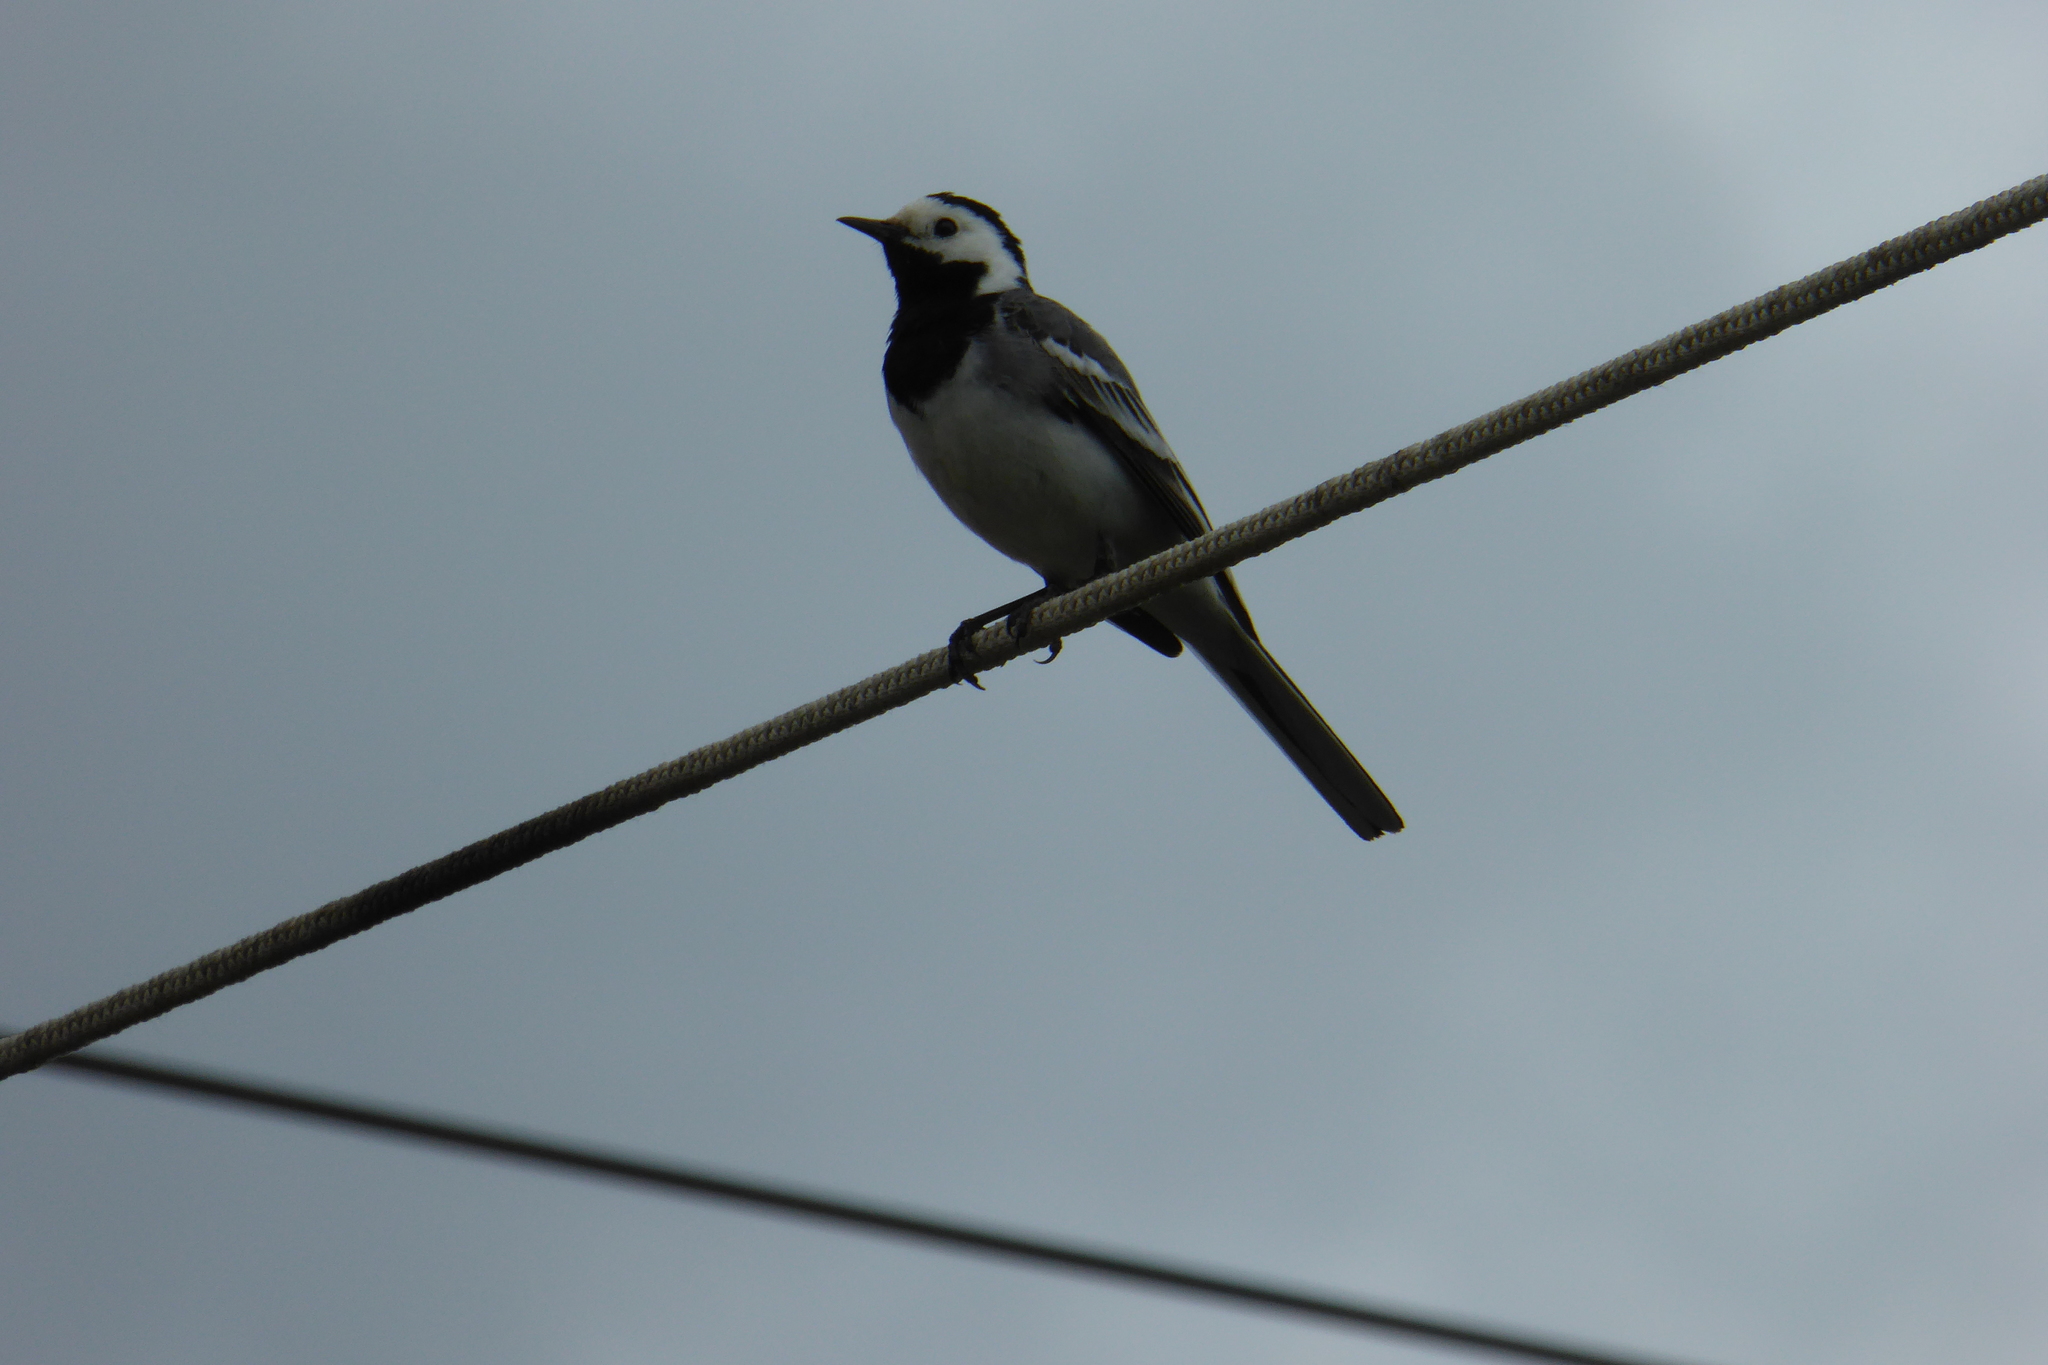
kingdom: Animalia
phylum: Chordata
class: Aves
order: Passeriformes
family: Motacillidae
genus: Motacilla
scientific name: Motacilla alba
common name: White wagtail
